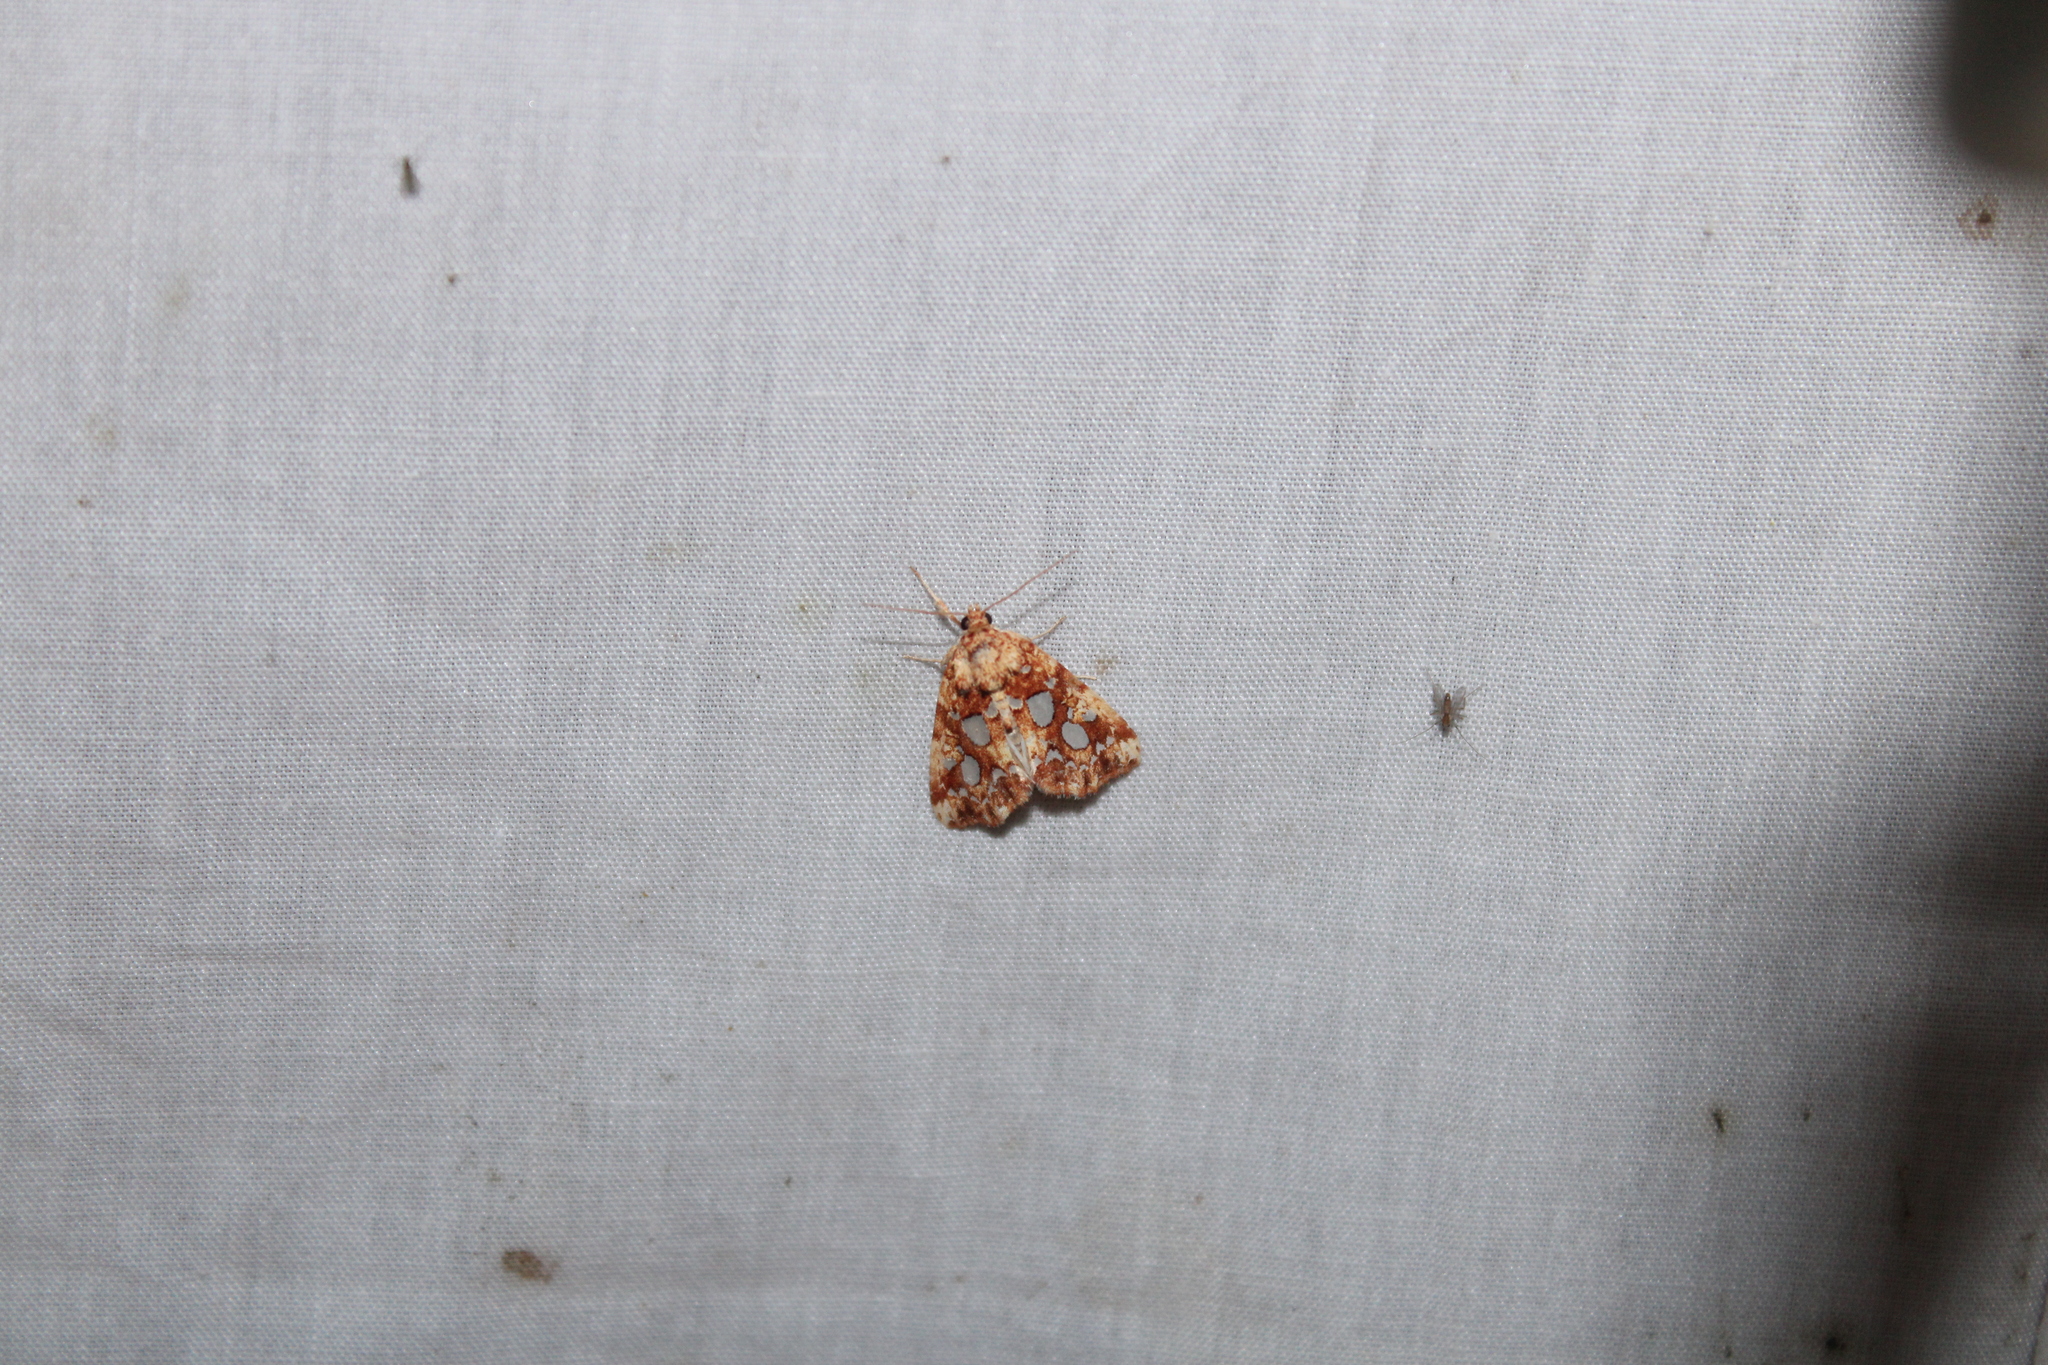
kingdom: Animalia
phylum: Arthropoda
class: Insecta
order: Lepidoptera
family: Noctuidae
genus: Callopistria
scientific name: Callopistria cordata
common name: Silver-spotted fern moth
